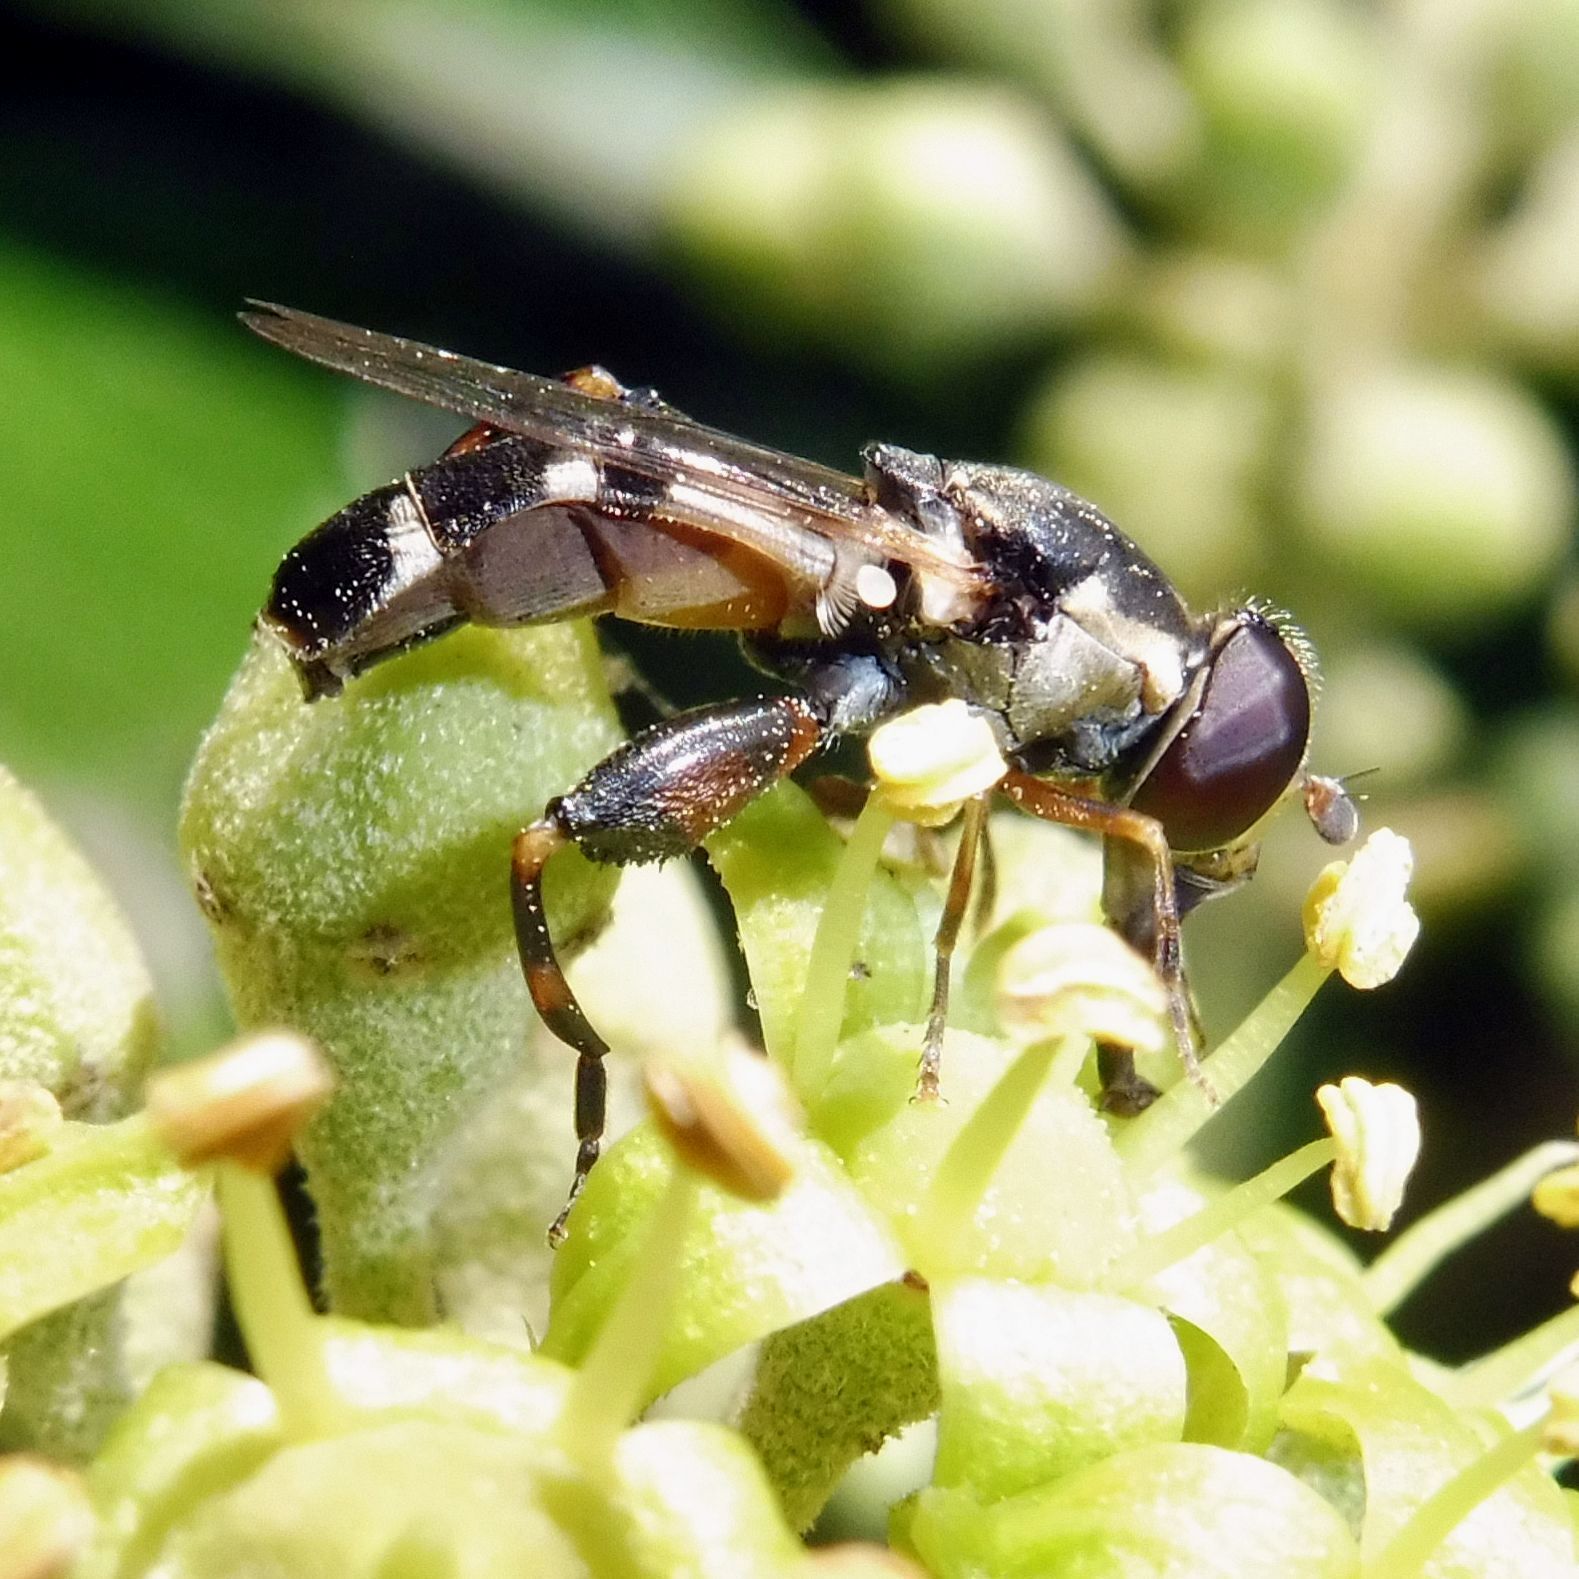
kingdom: Animalia
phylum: Arthropoda
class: Insecta
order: Diptera
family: Syrphidae
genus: Syritta
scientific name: Syritta pipiens
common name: Hover fly
